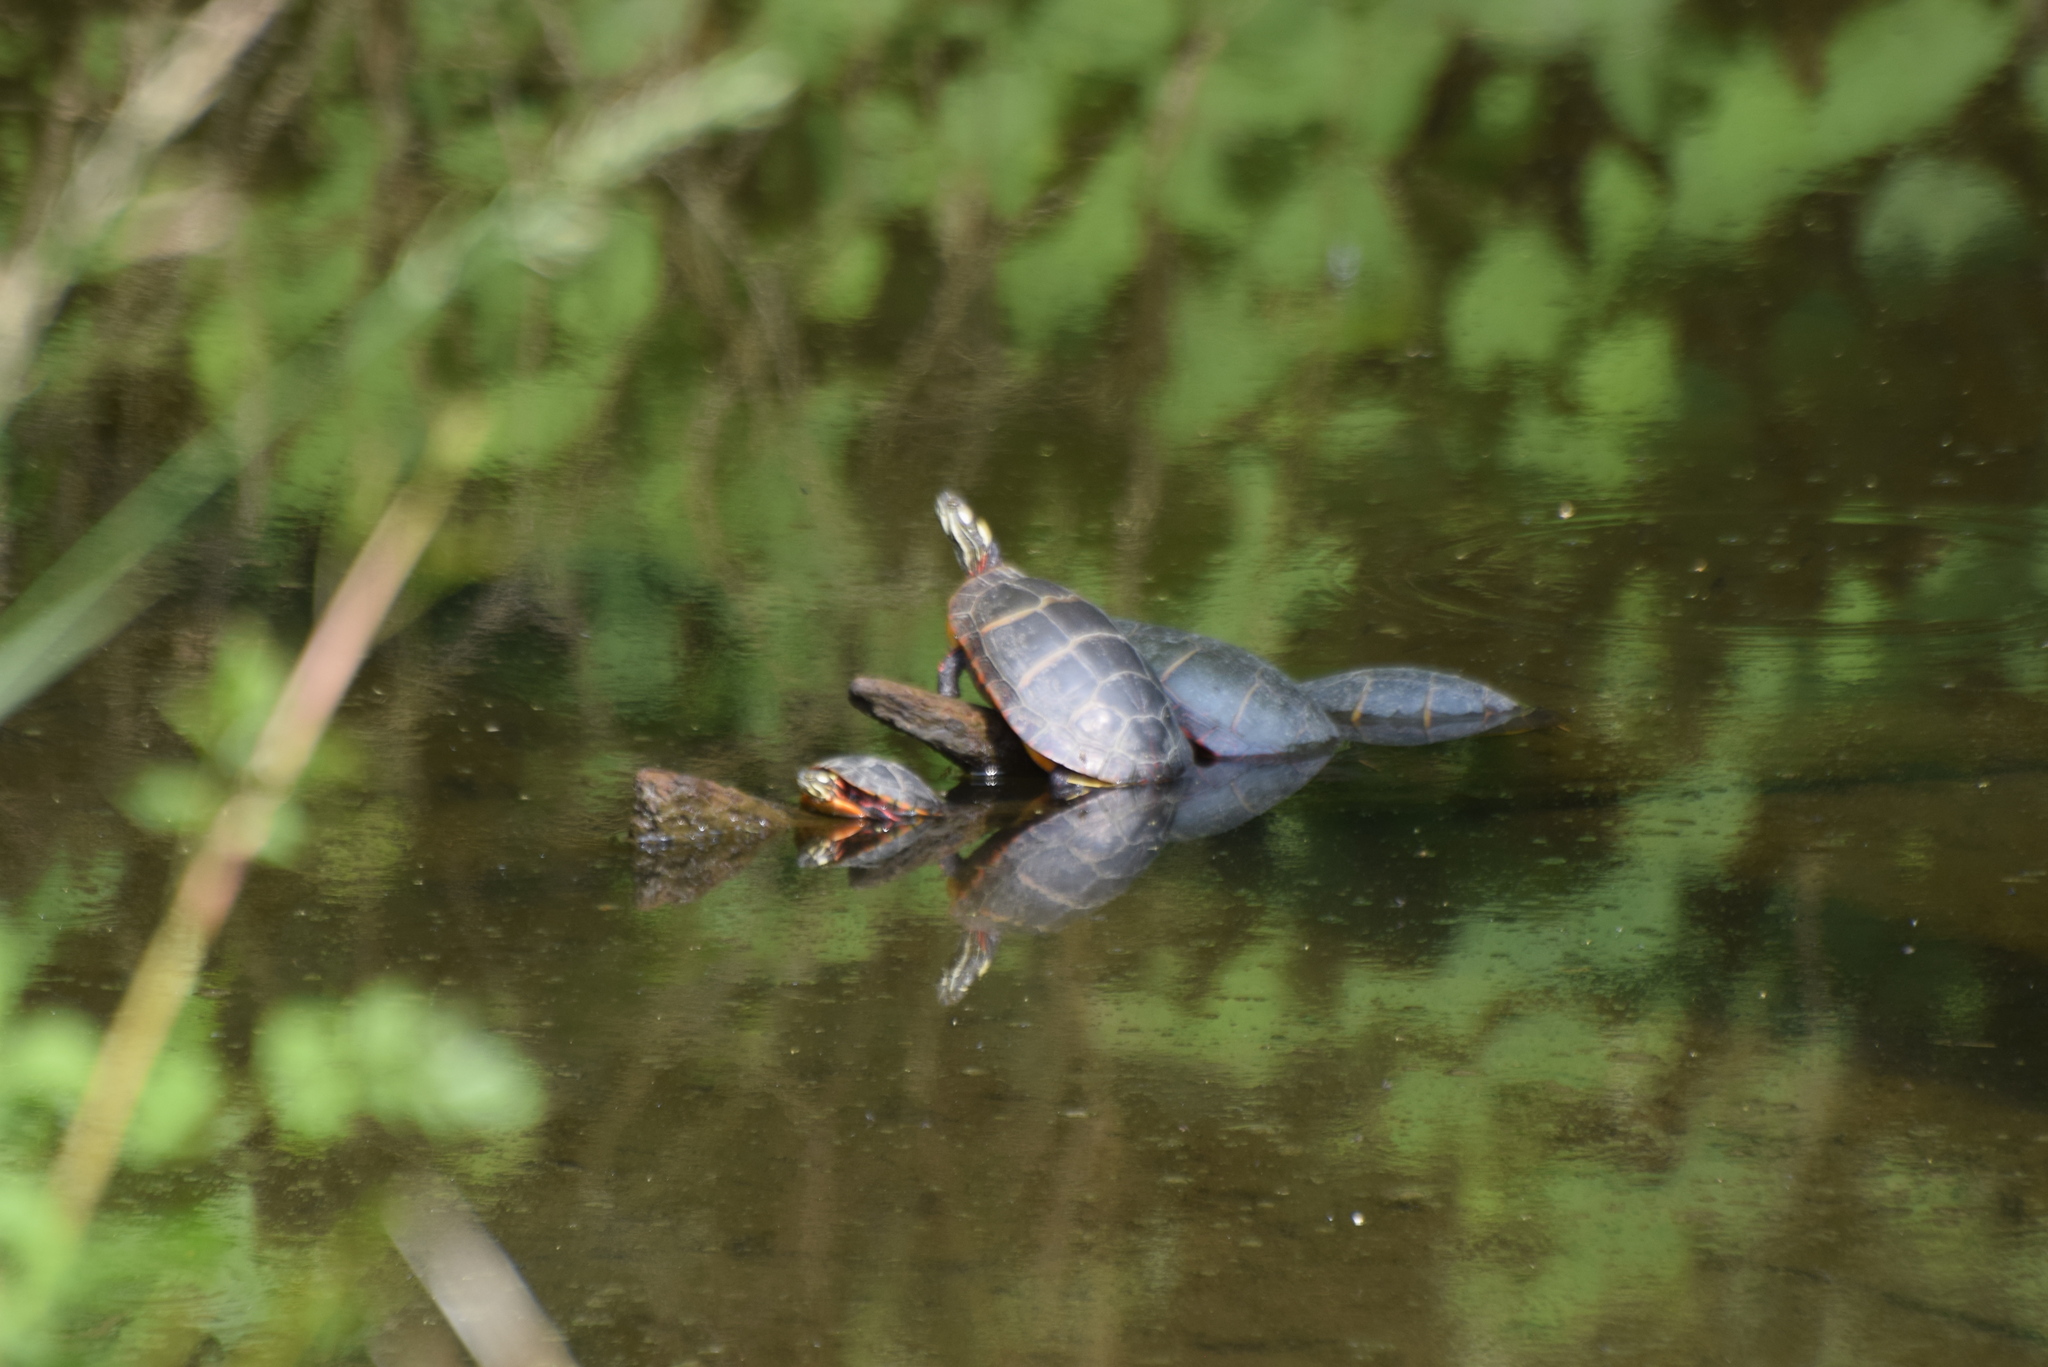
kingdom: Animalia
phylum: Chordata
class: Testudines
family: Emydidae
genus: Chrysemys
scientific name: Chrysemys picta
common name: Painted turtle
